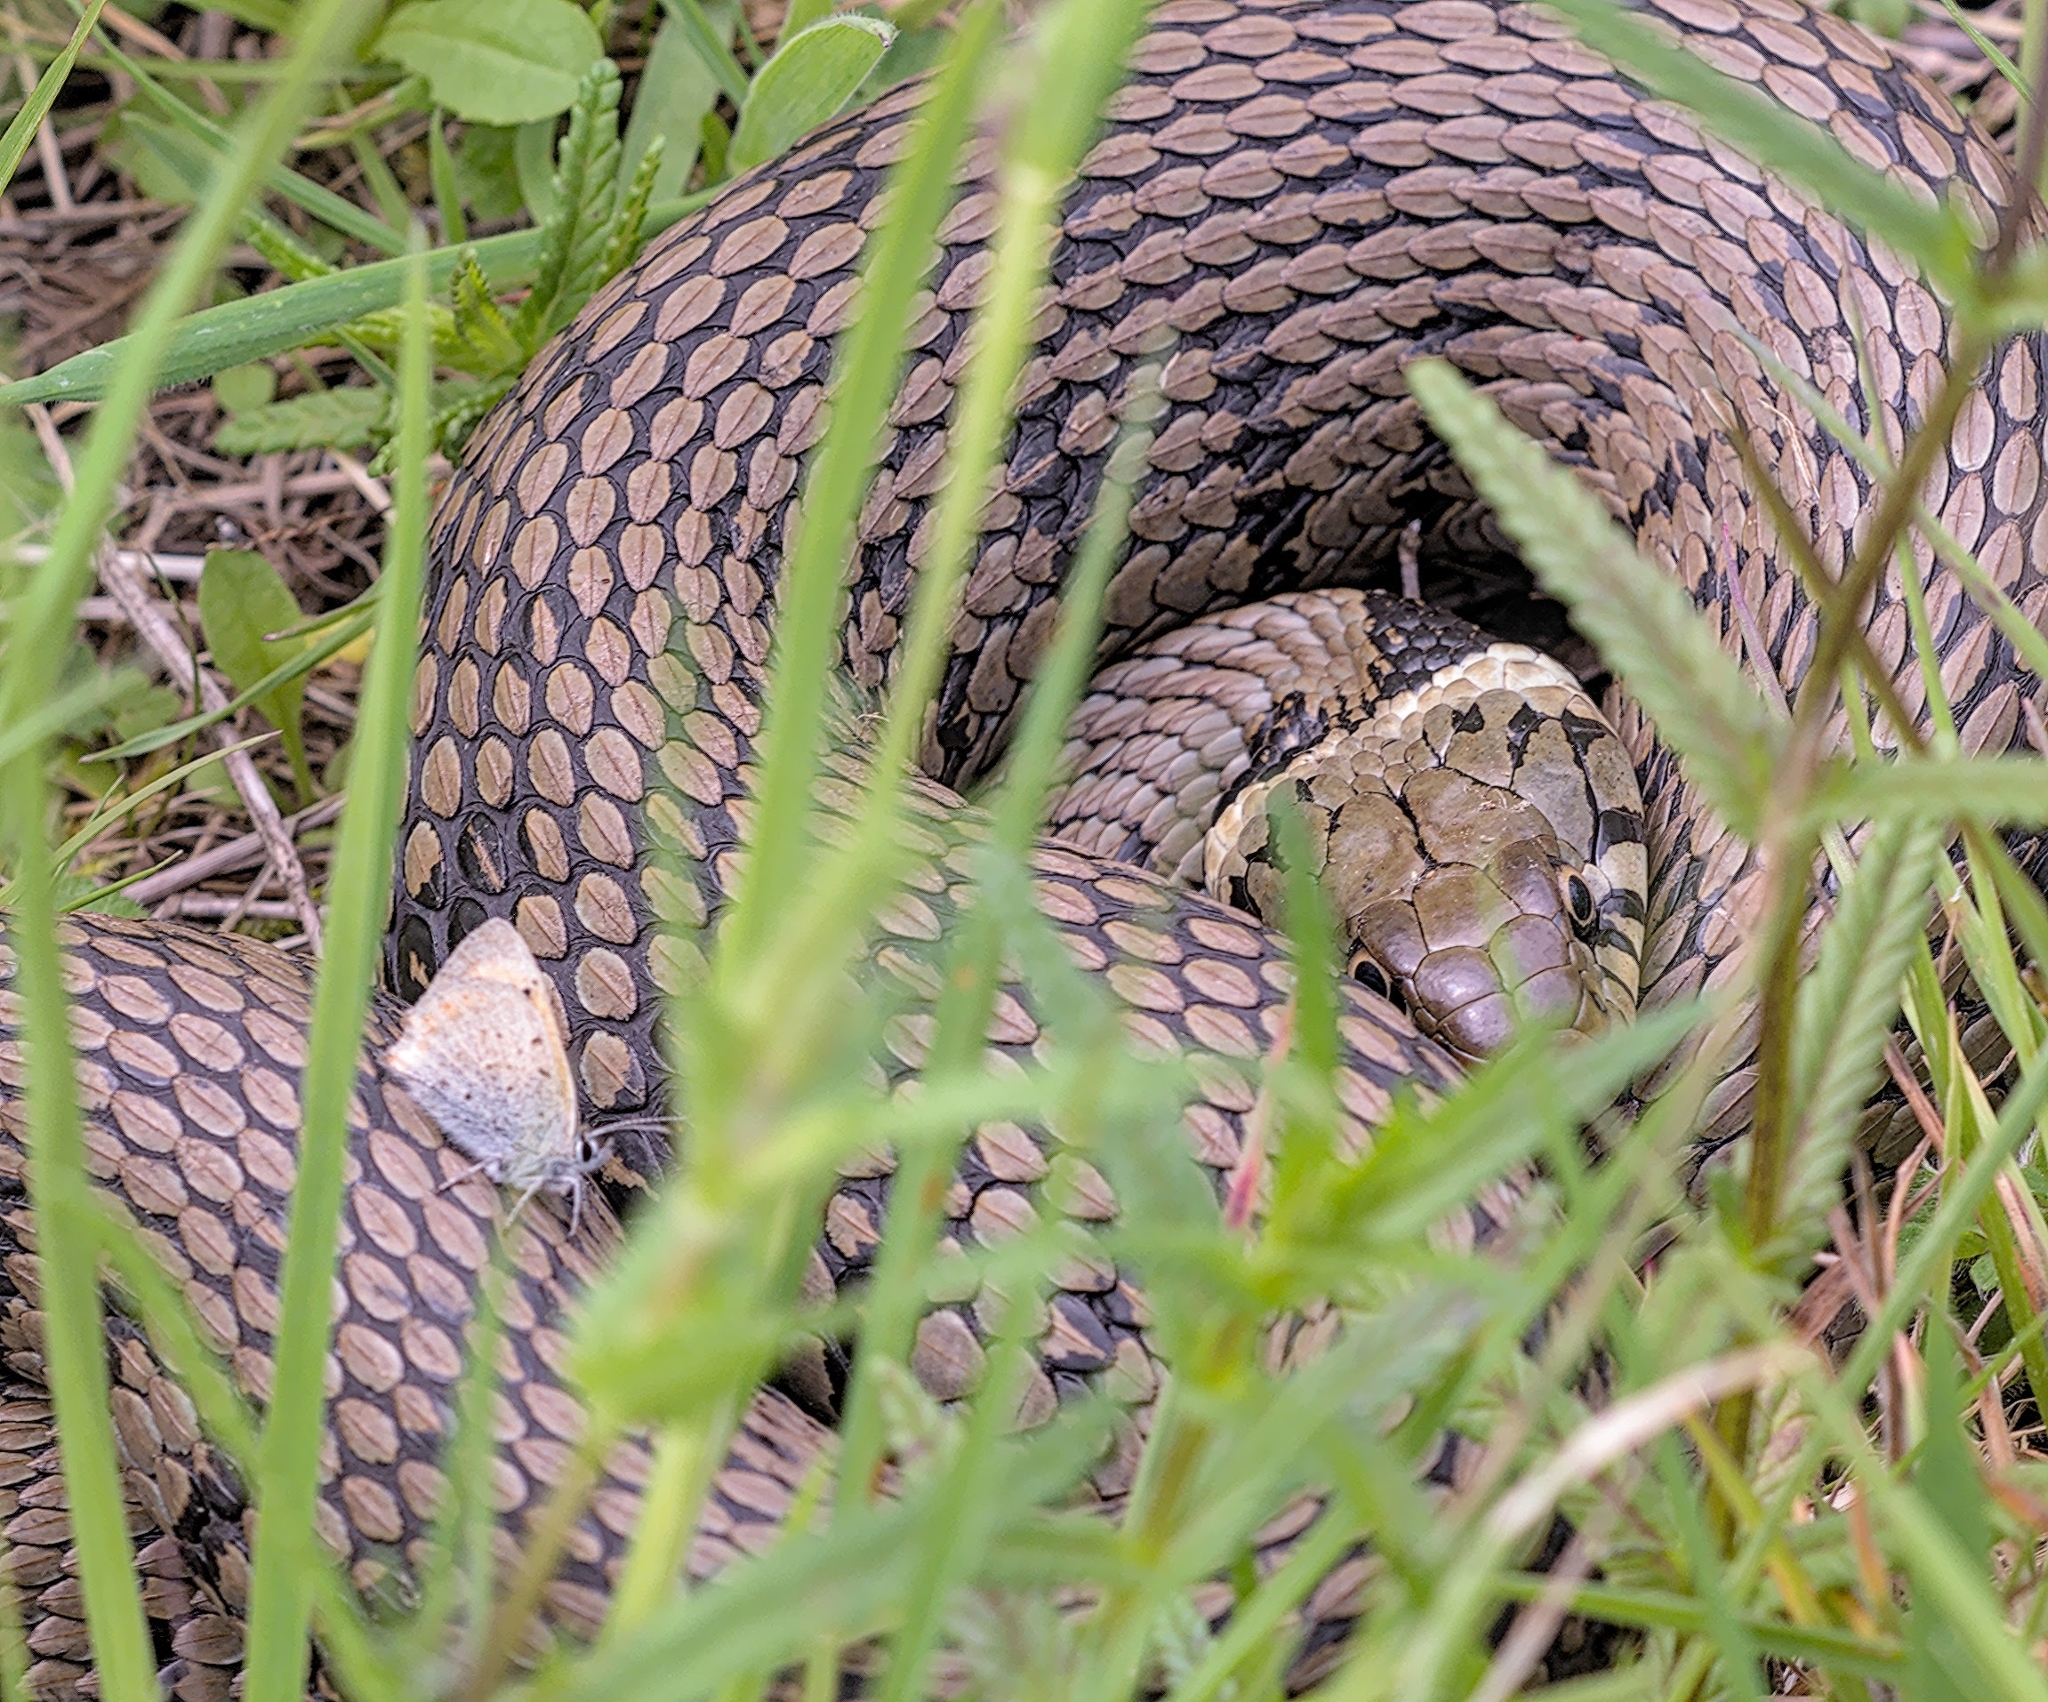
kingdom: Animalia
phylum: Chordata
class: Squamata
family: Colubridae
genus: Natrix
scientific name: Natrix helvetica
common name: Banded grass snake
